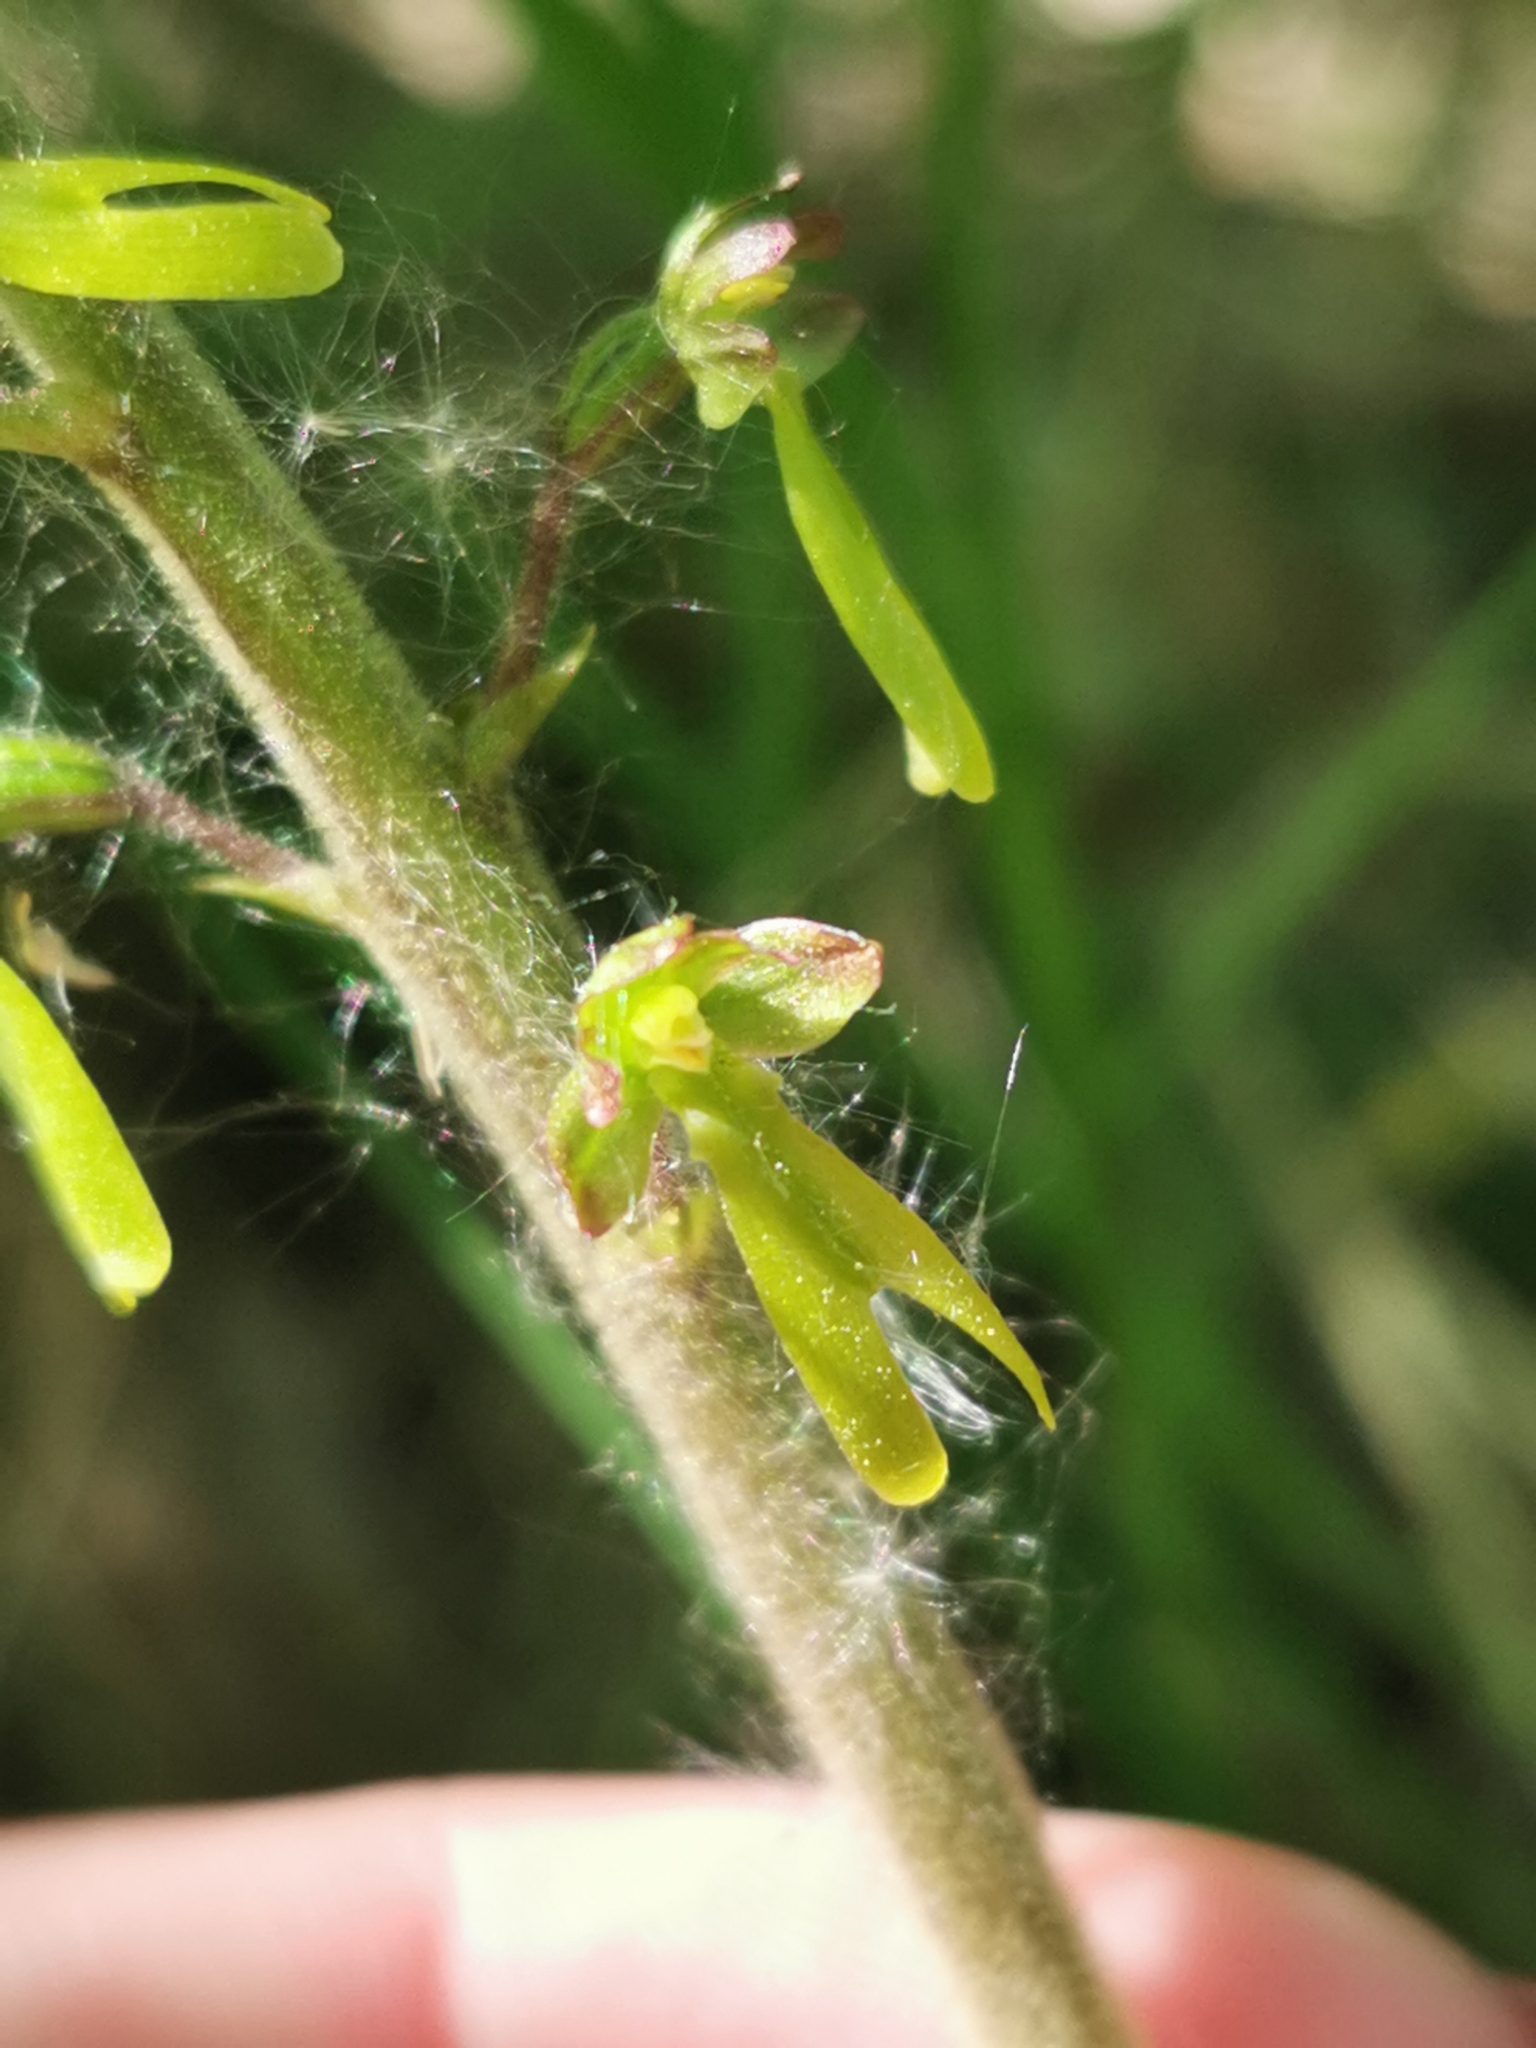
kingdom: Plantae
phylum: Tracheophyta
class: Liliopsida
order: Asparagales
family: Orchidaceae
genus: Neottia
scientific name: Neottia ovata
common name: Common twayblade
